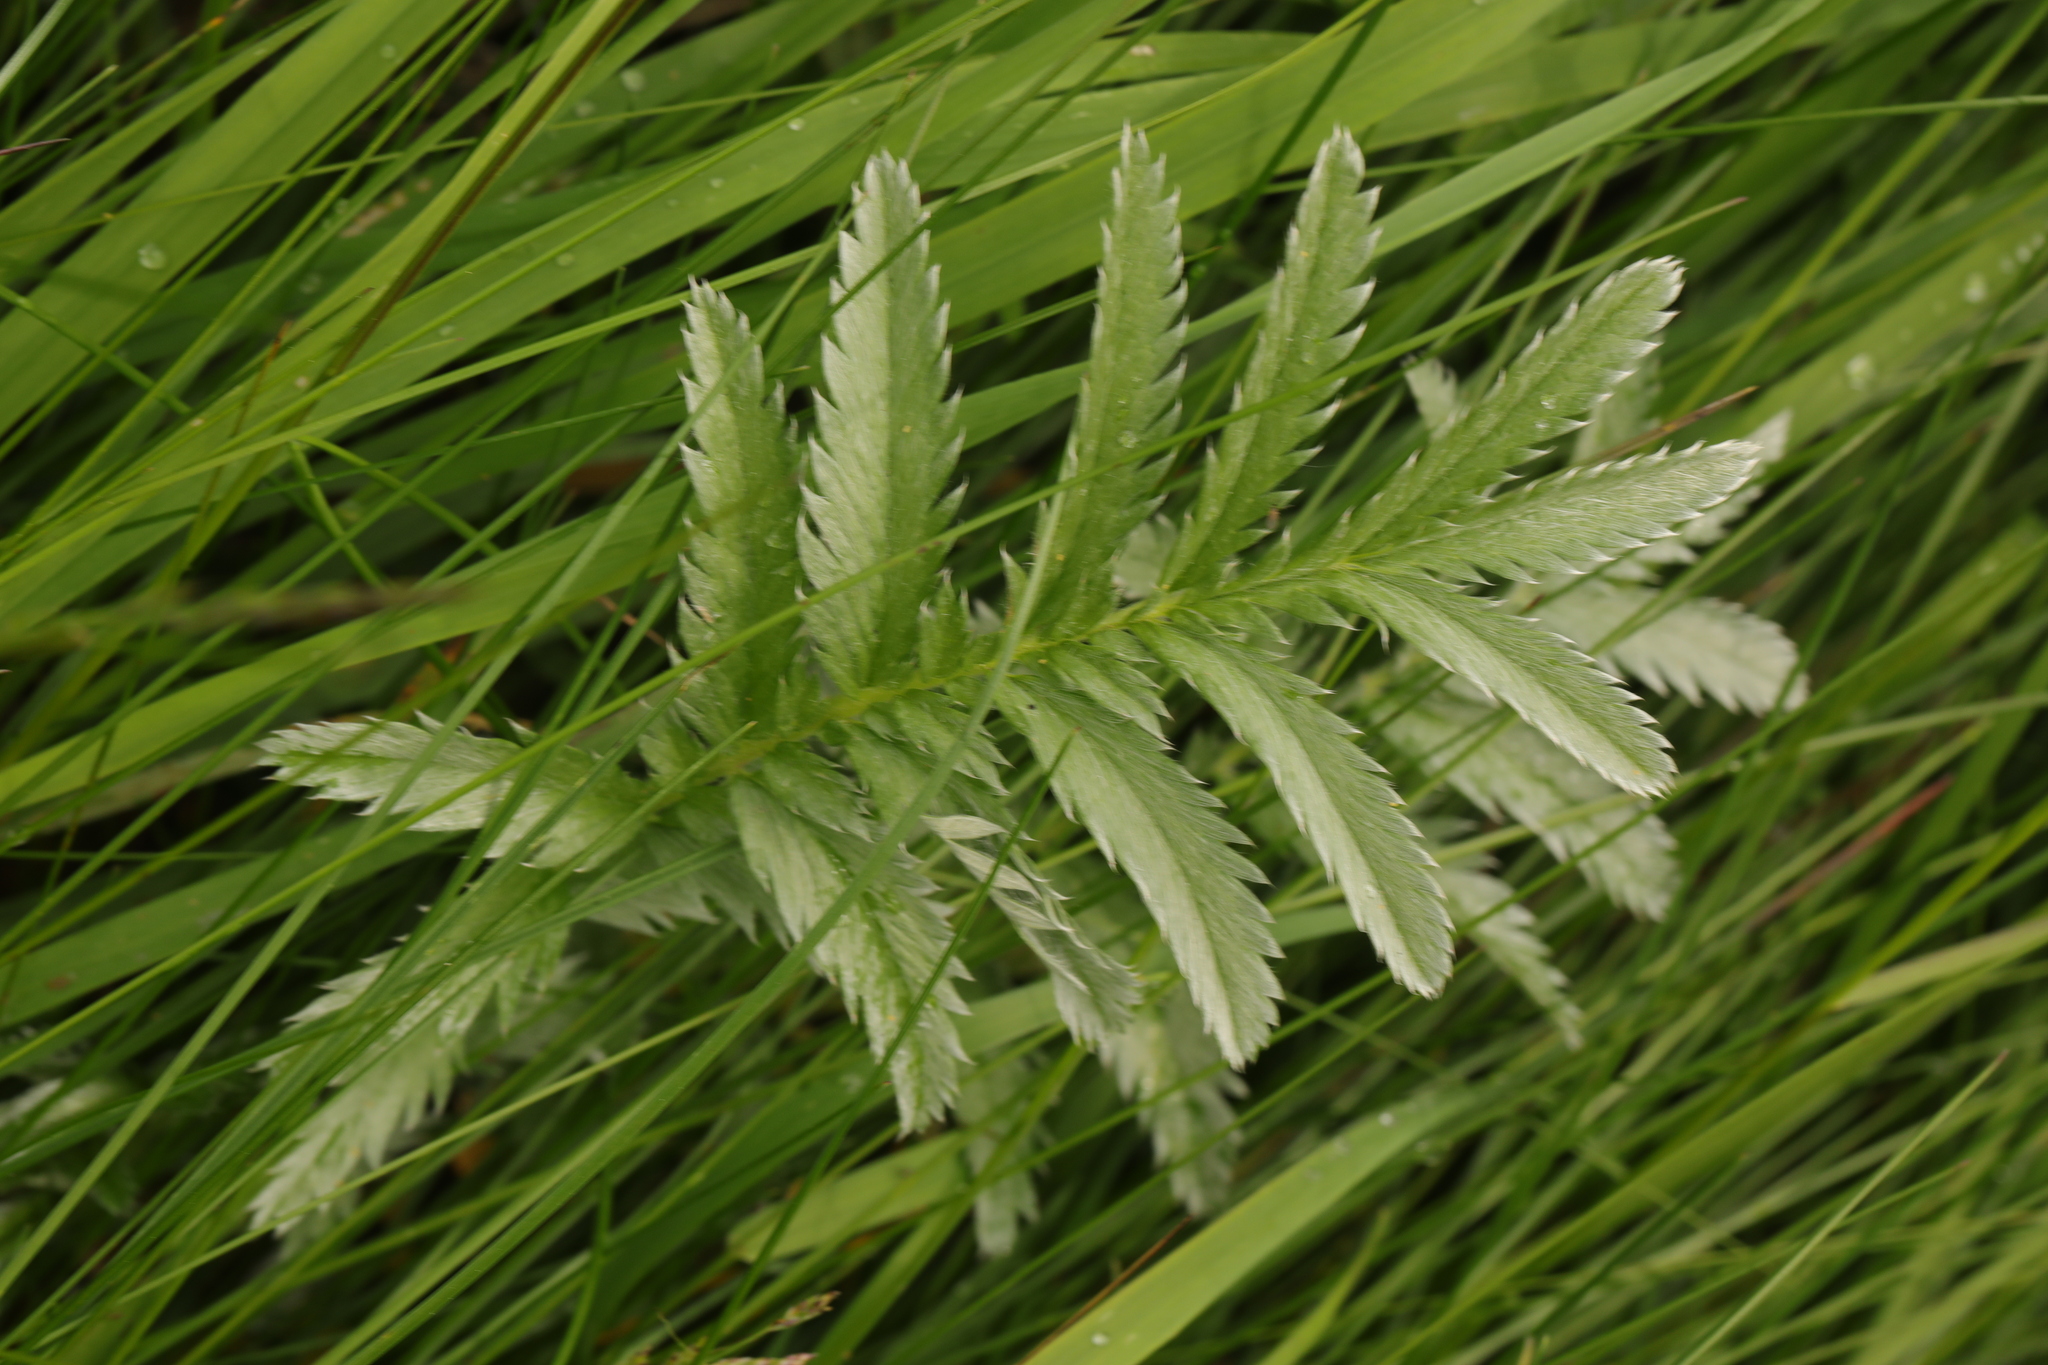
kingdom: Plantae
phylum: Tracheophyta
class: Magnoliopsida
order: Rosales
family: Rosaceae
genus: Argentina
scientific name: Argentina anserina
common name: Common silverweed
